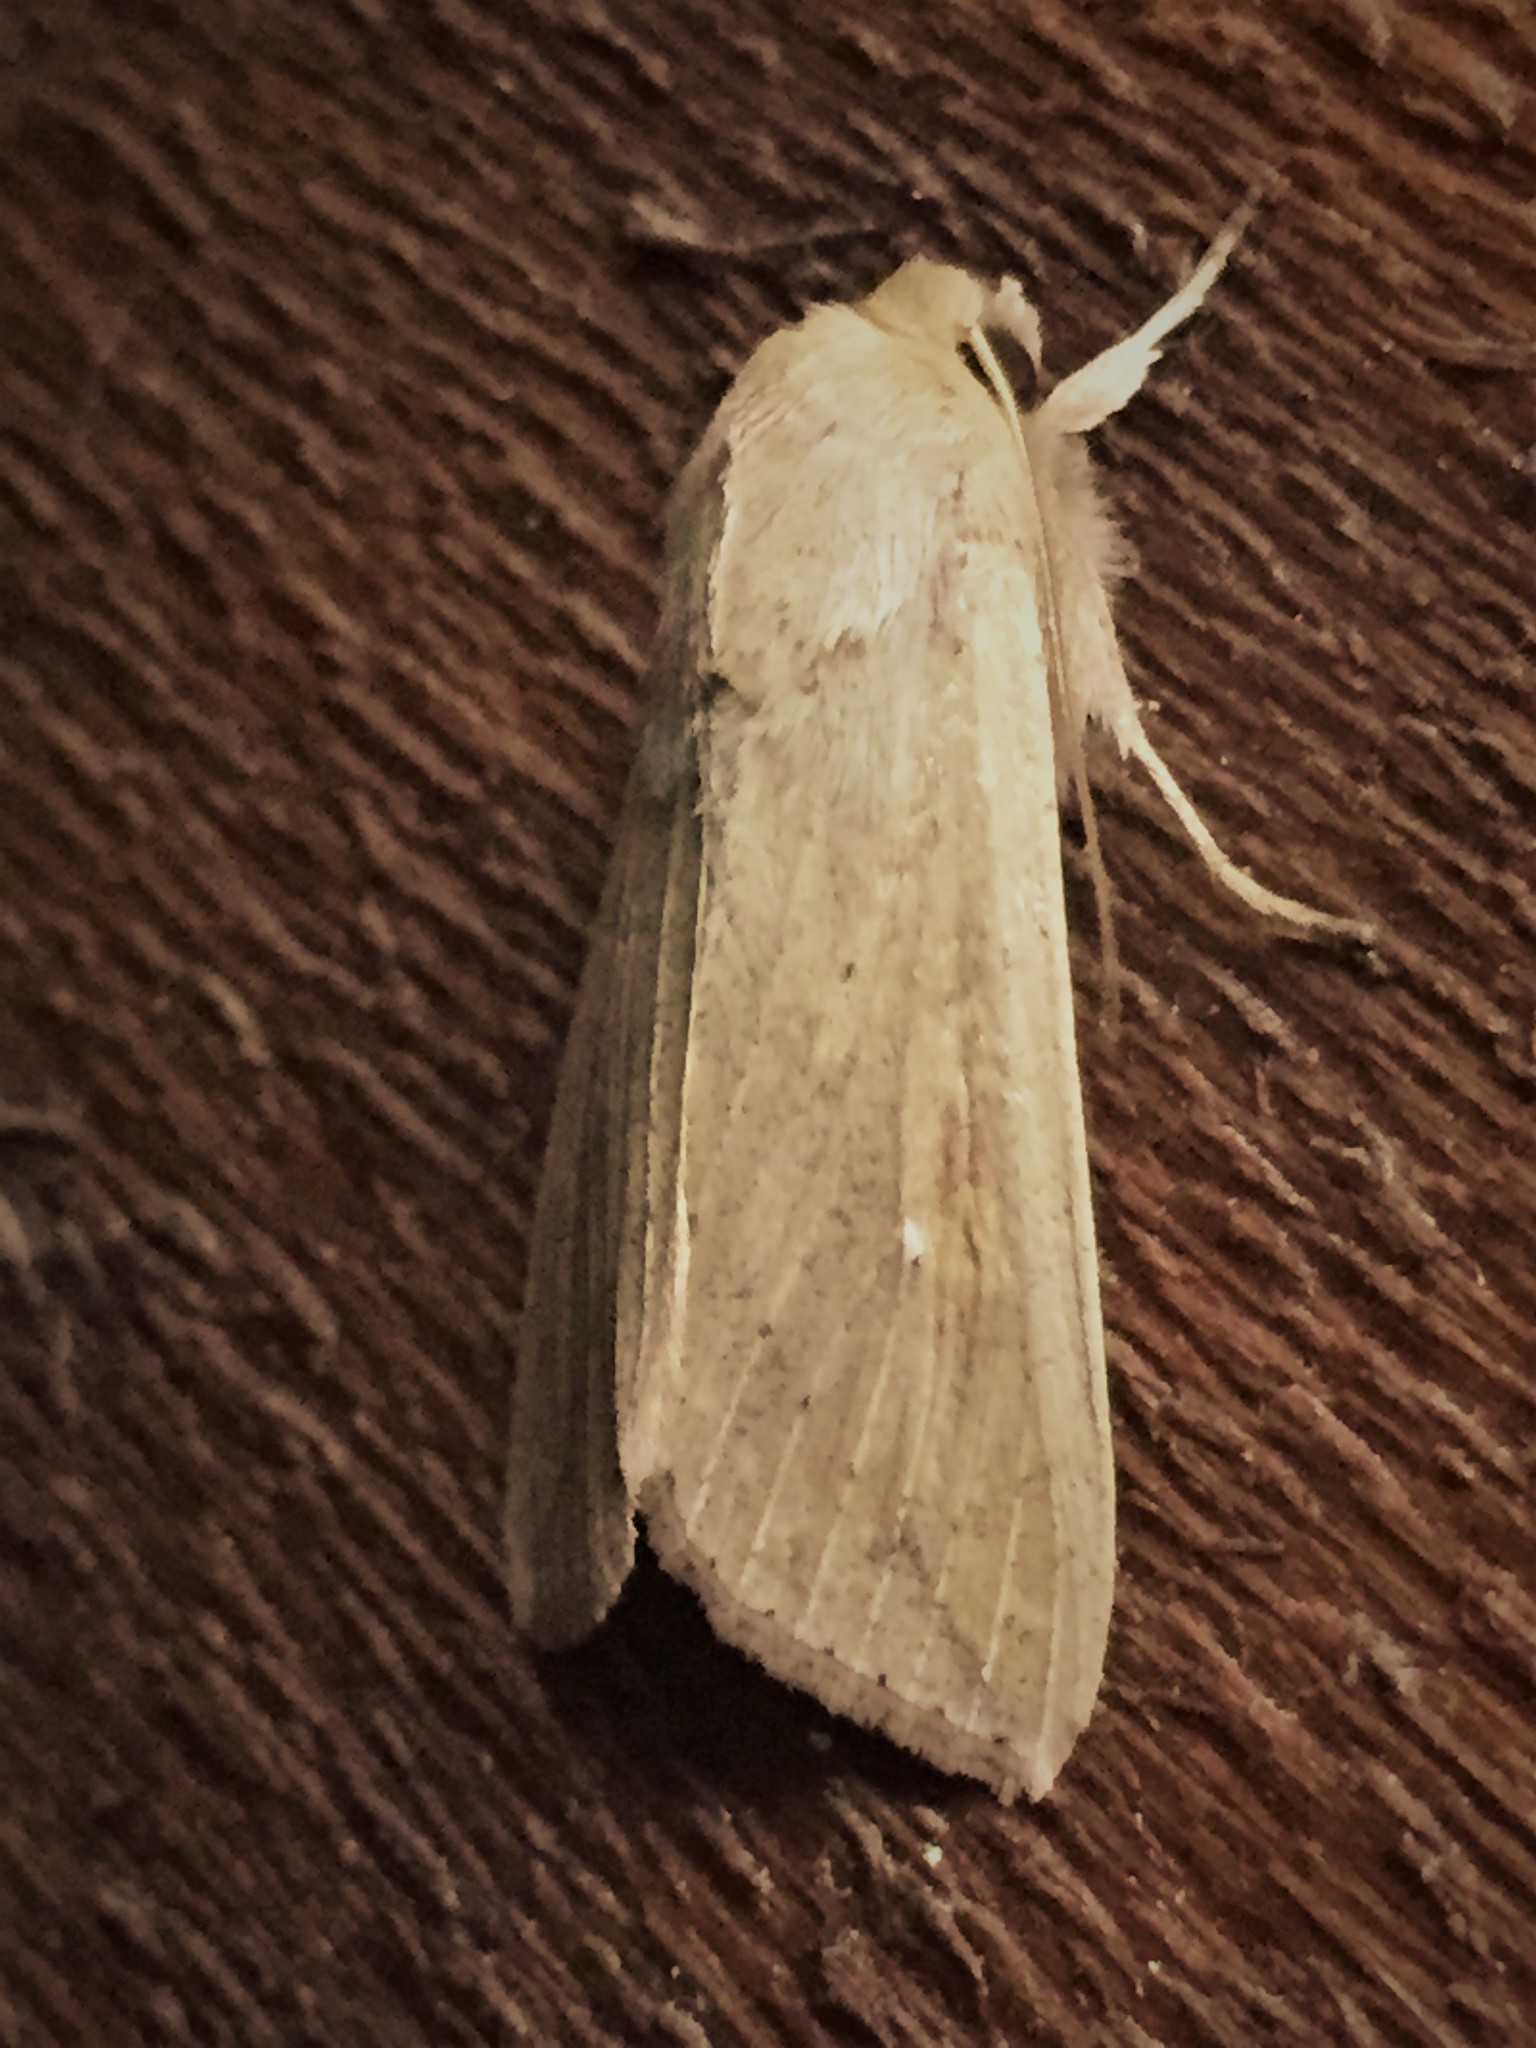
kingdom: Animalia
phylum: Arthropoda
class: Insecta
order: Lepidoptera
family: Noctuidae
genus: Mythimna
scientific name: Mythimna separata
